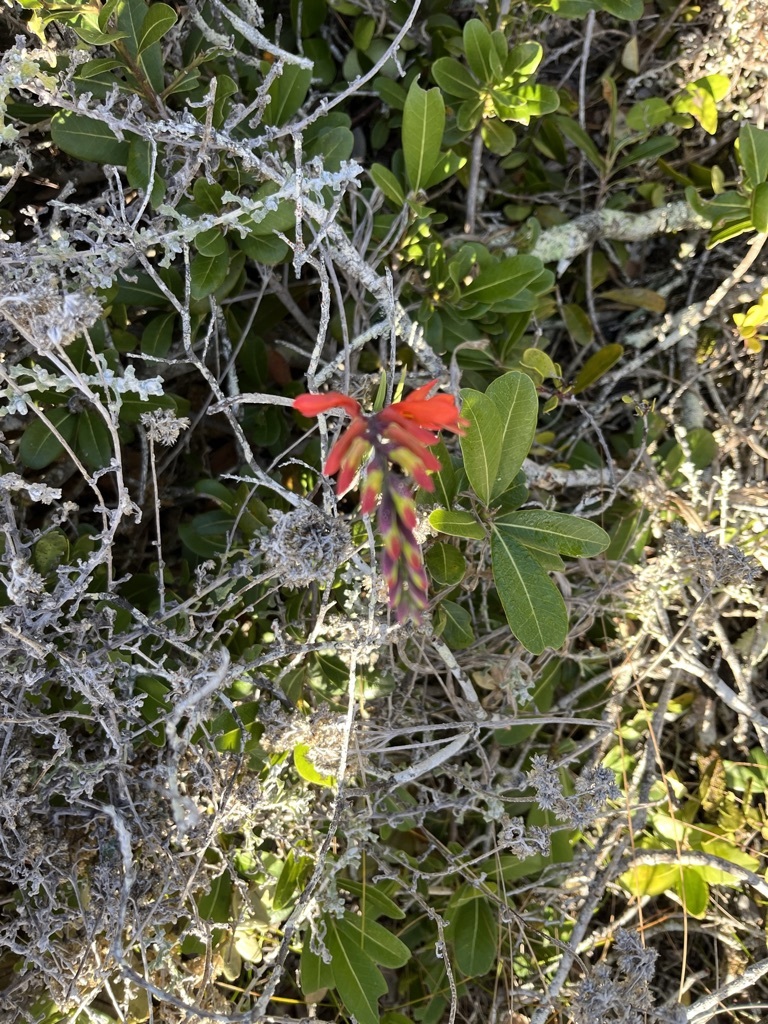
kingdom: Plantae
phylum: Tracheophyta
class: Liliopsida
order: Asparagales
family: Iridaceae
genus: Chasmanthe
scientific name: Chasmanthe aethiopica
